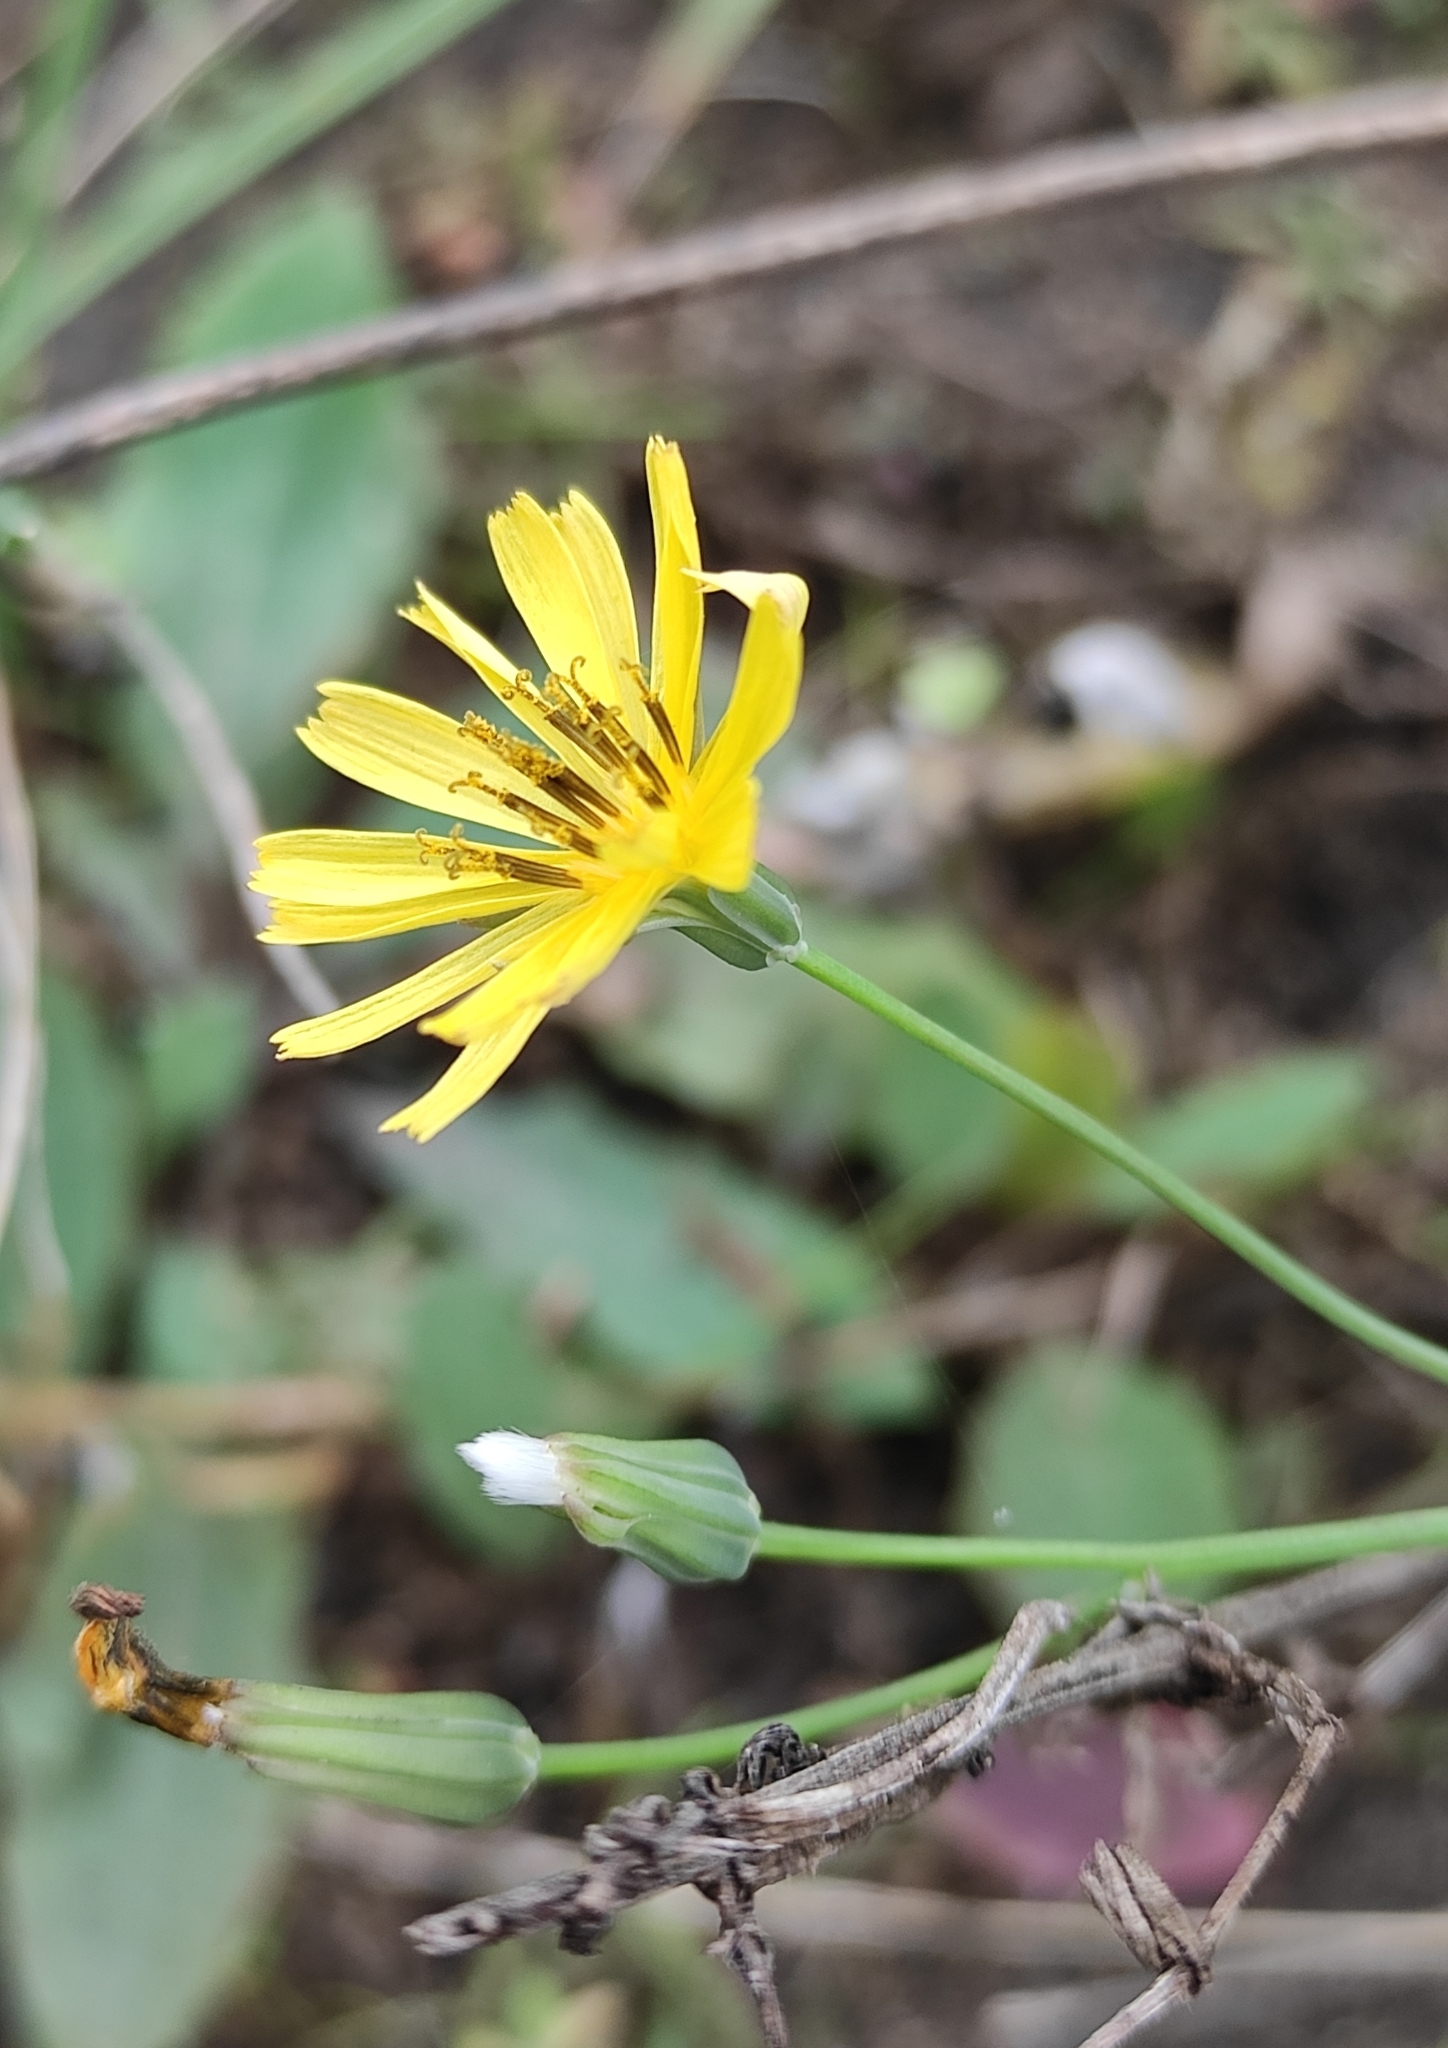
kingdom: Plantae
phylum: Tracheophyta
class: Magnoliopsida
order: Asterales
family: Asteraceae
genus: Ixeris
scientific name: Ixeris chinensis
